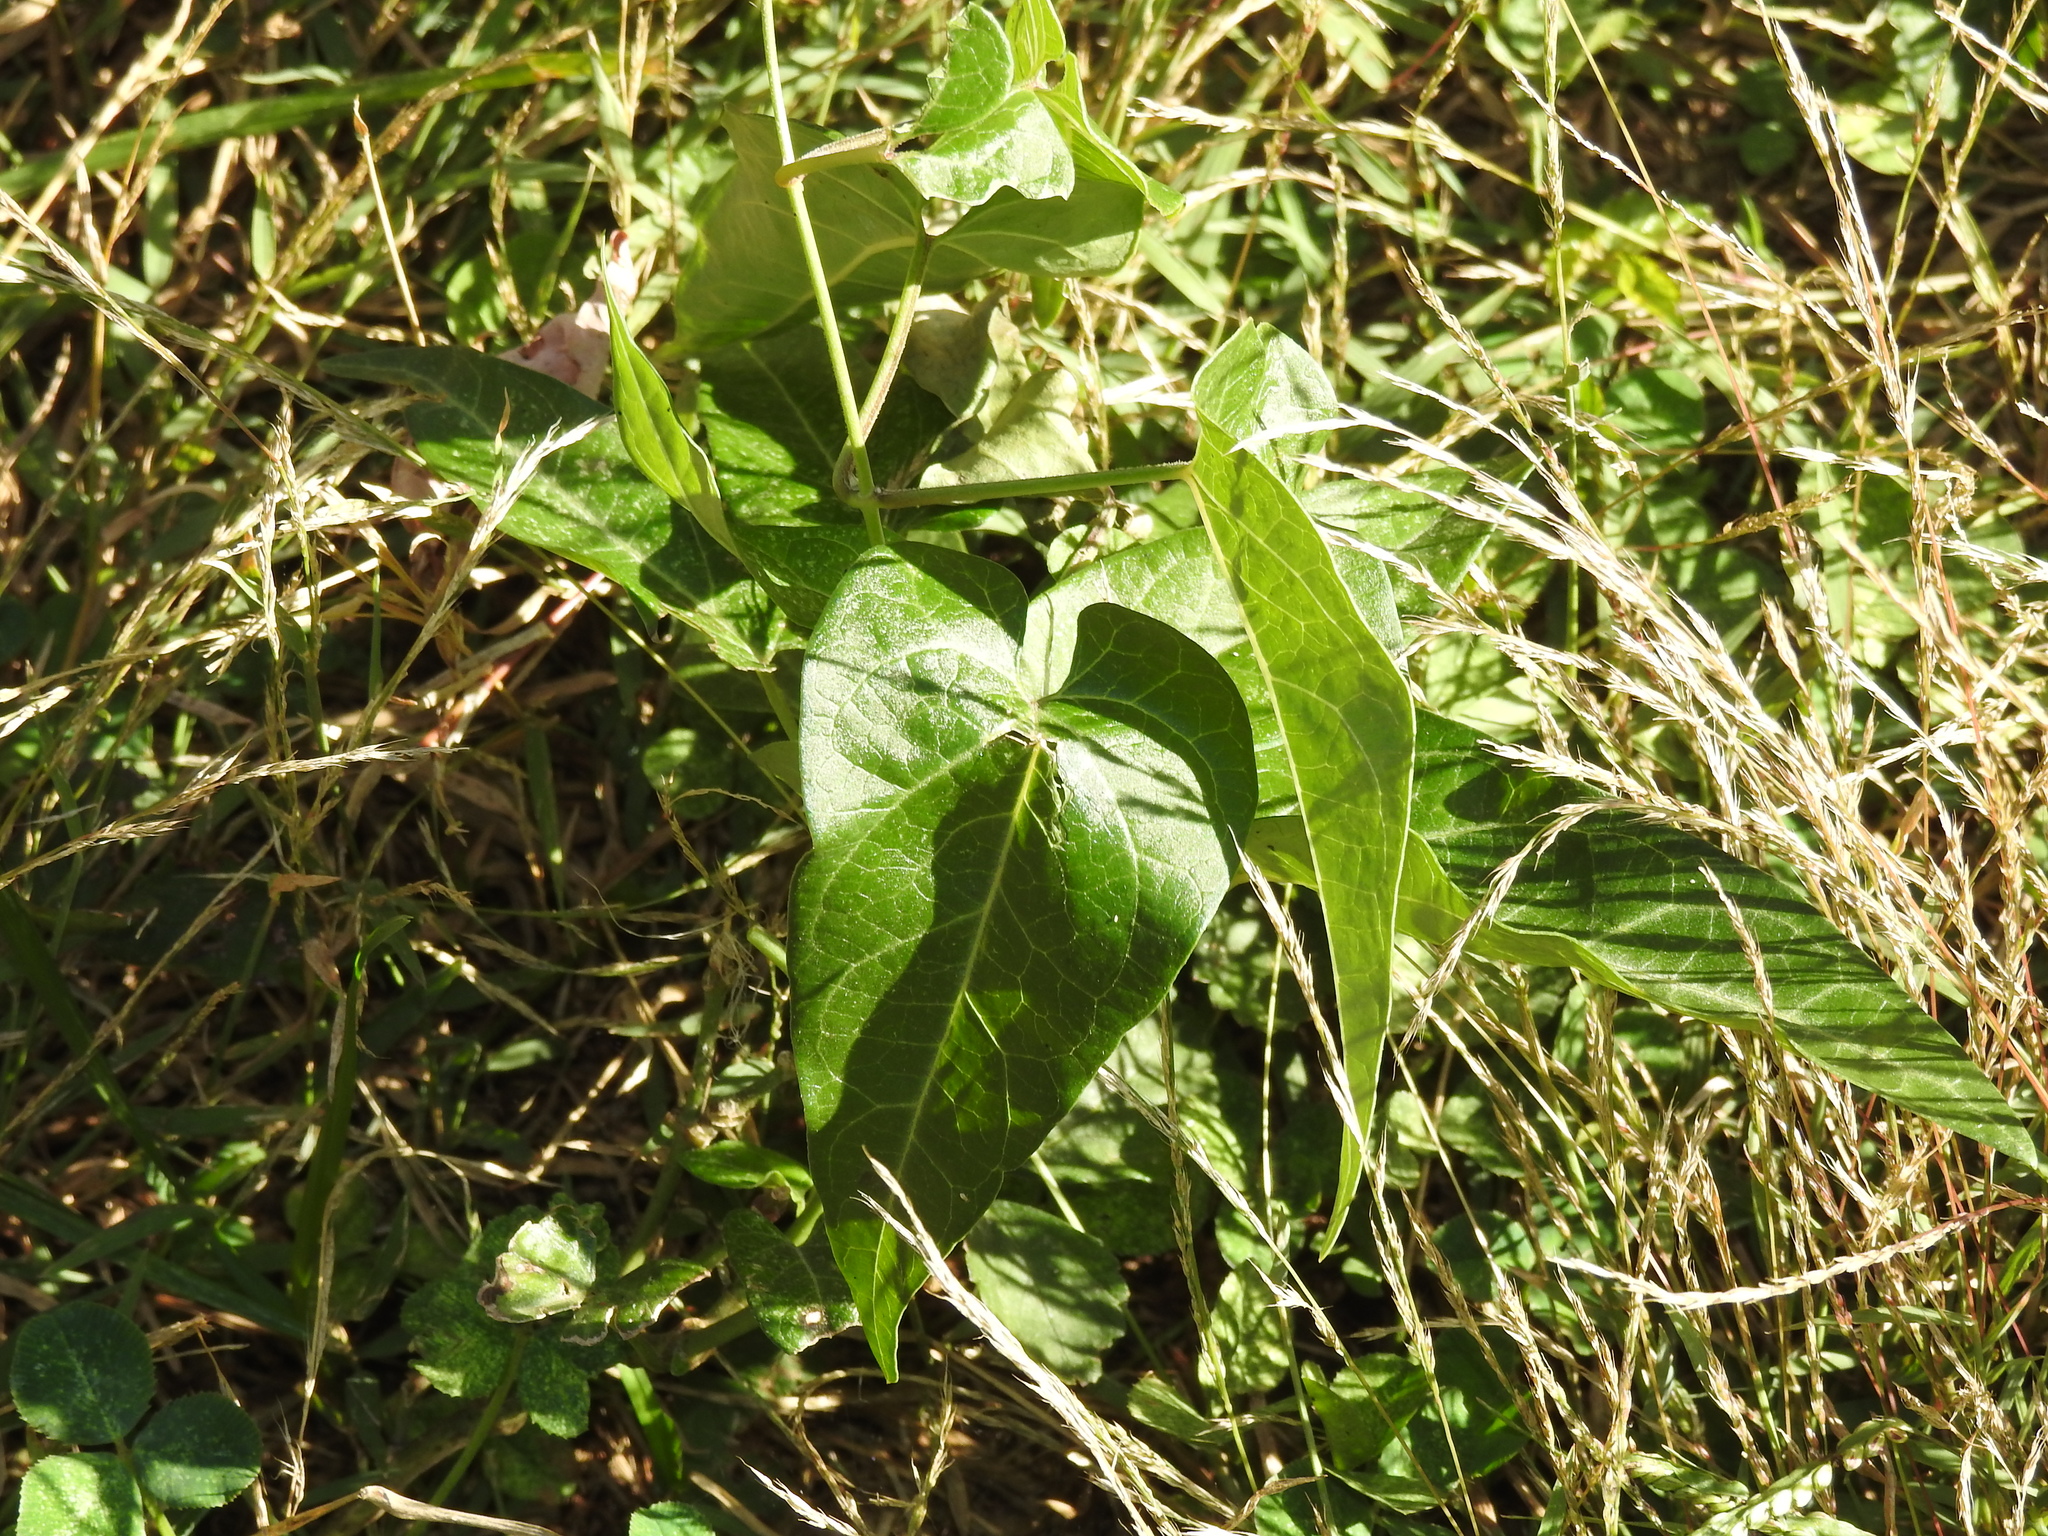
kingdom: Plantae
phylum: Tracheophyta
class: Magnoliopsida
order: Gentianales
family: Apocynaceae
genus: Cynanchum
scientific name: Cynanchum laeve
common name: Sandvine
